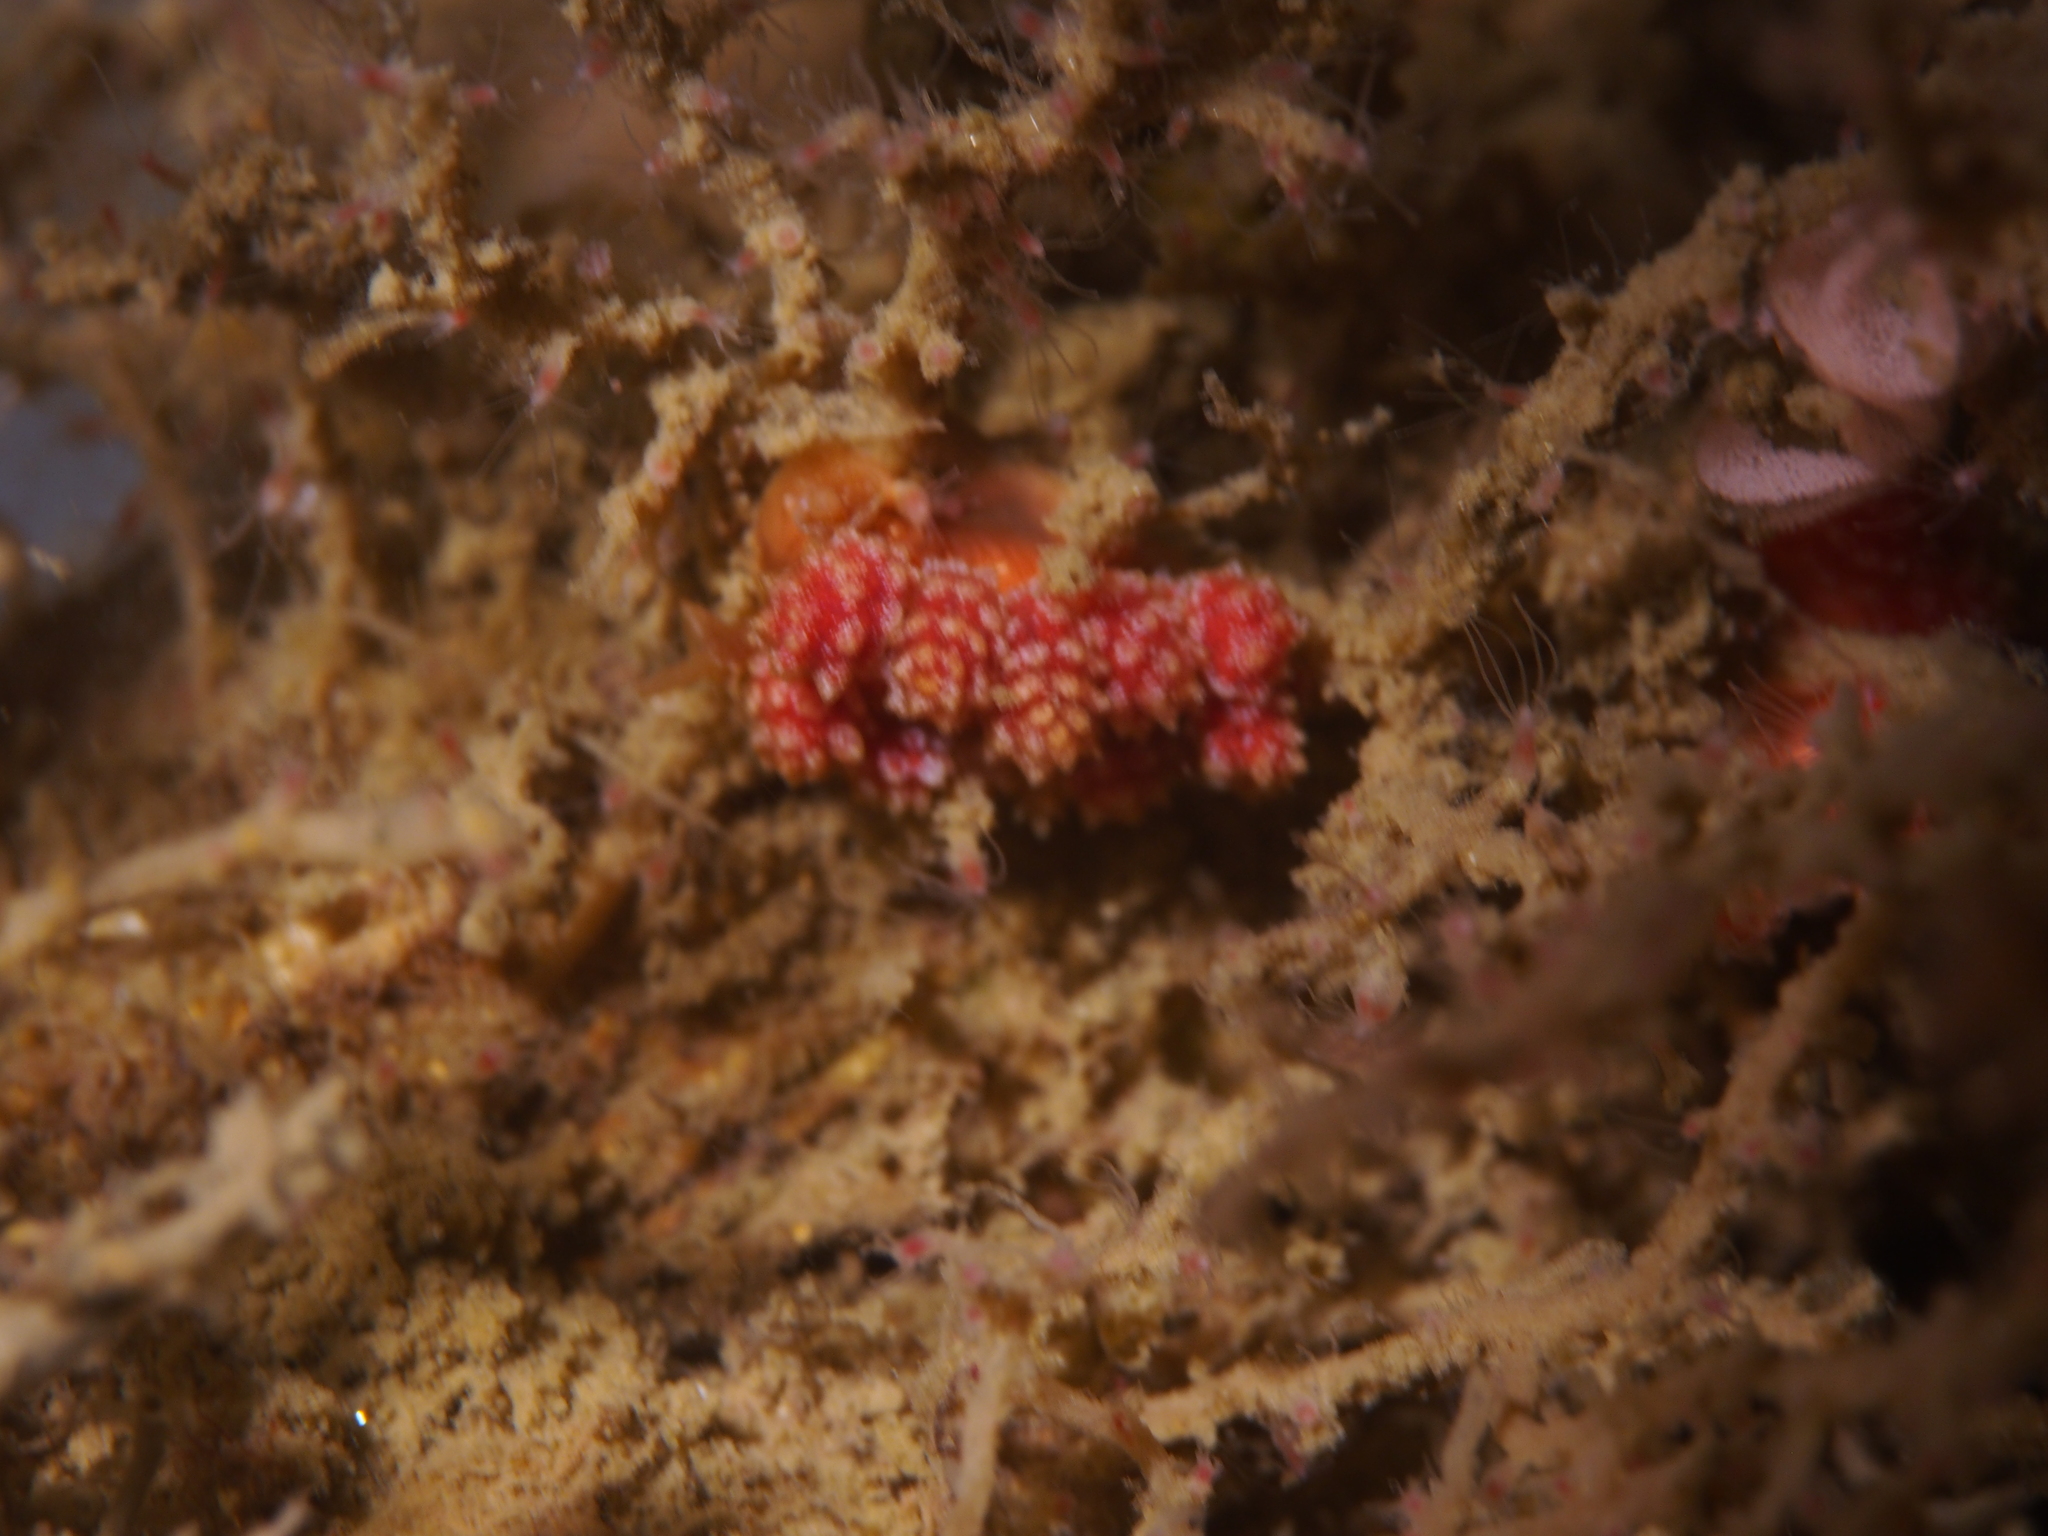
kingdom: Animalia
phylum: Mollusca
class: Gastropoda
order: Nudibranchia
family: Dotidae
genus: Doto
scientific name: Doto fragilis
